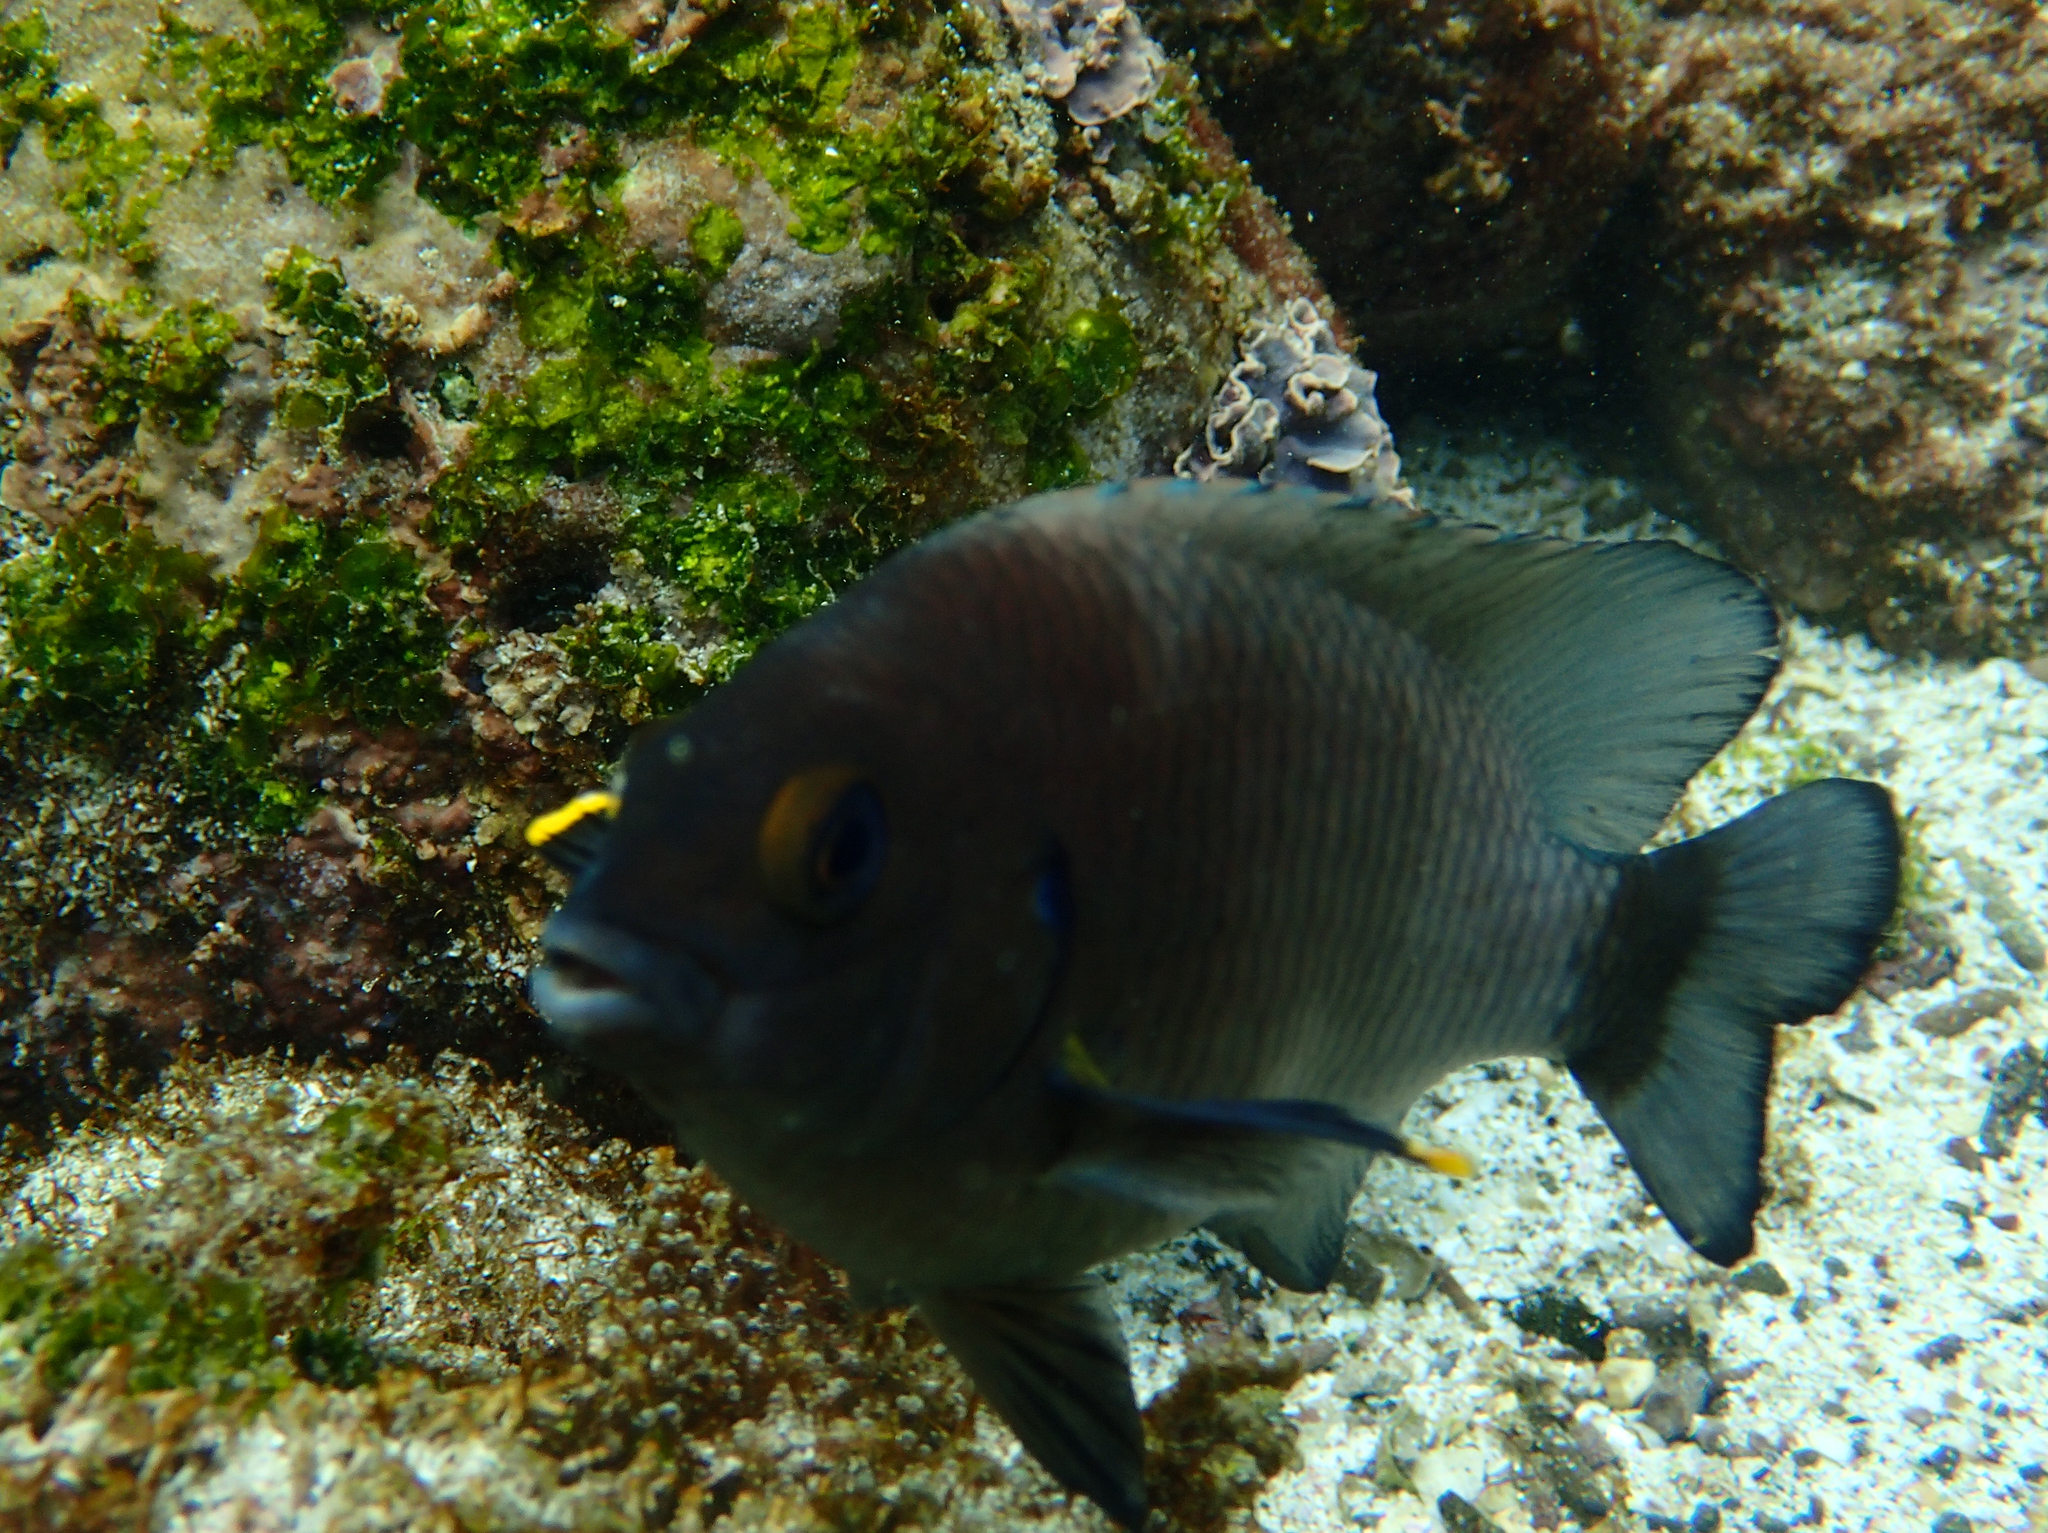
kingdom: Animalia
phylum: Chordata
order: Perciformes
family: Pomacentridae
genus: Stegastes
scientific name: Stegastes beebei
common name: Galapagos ringtail damselfish
